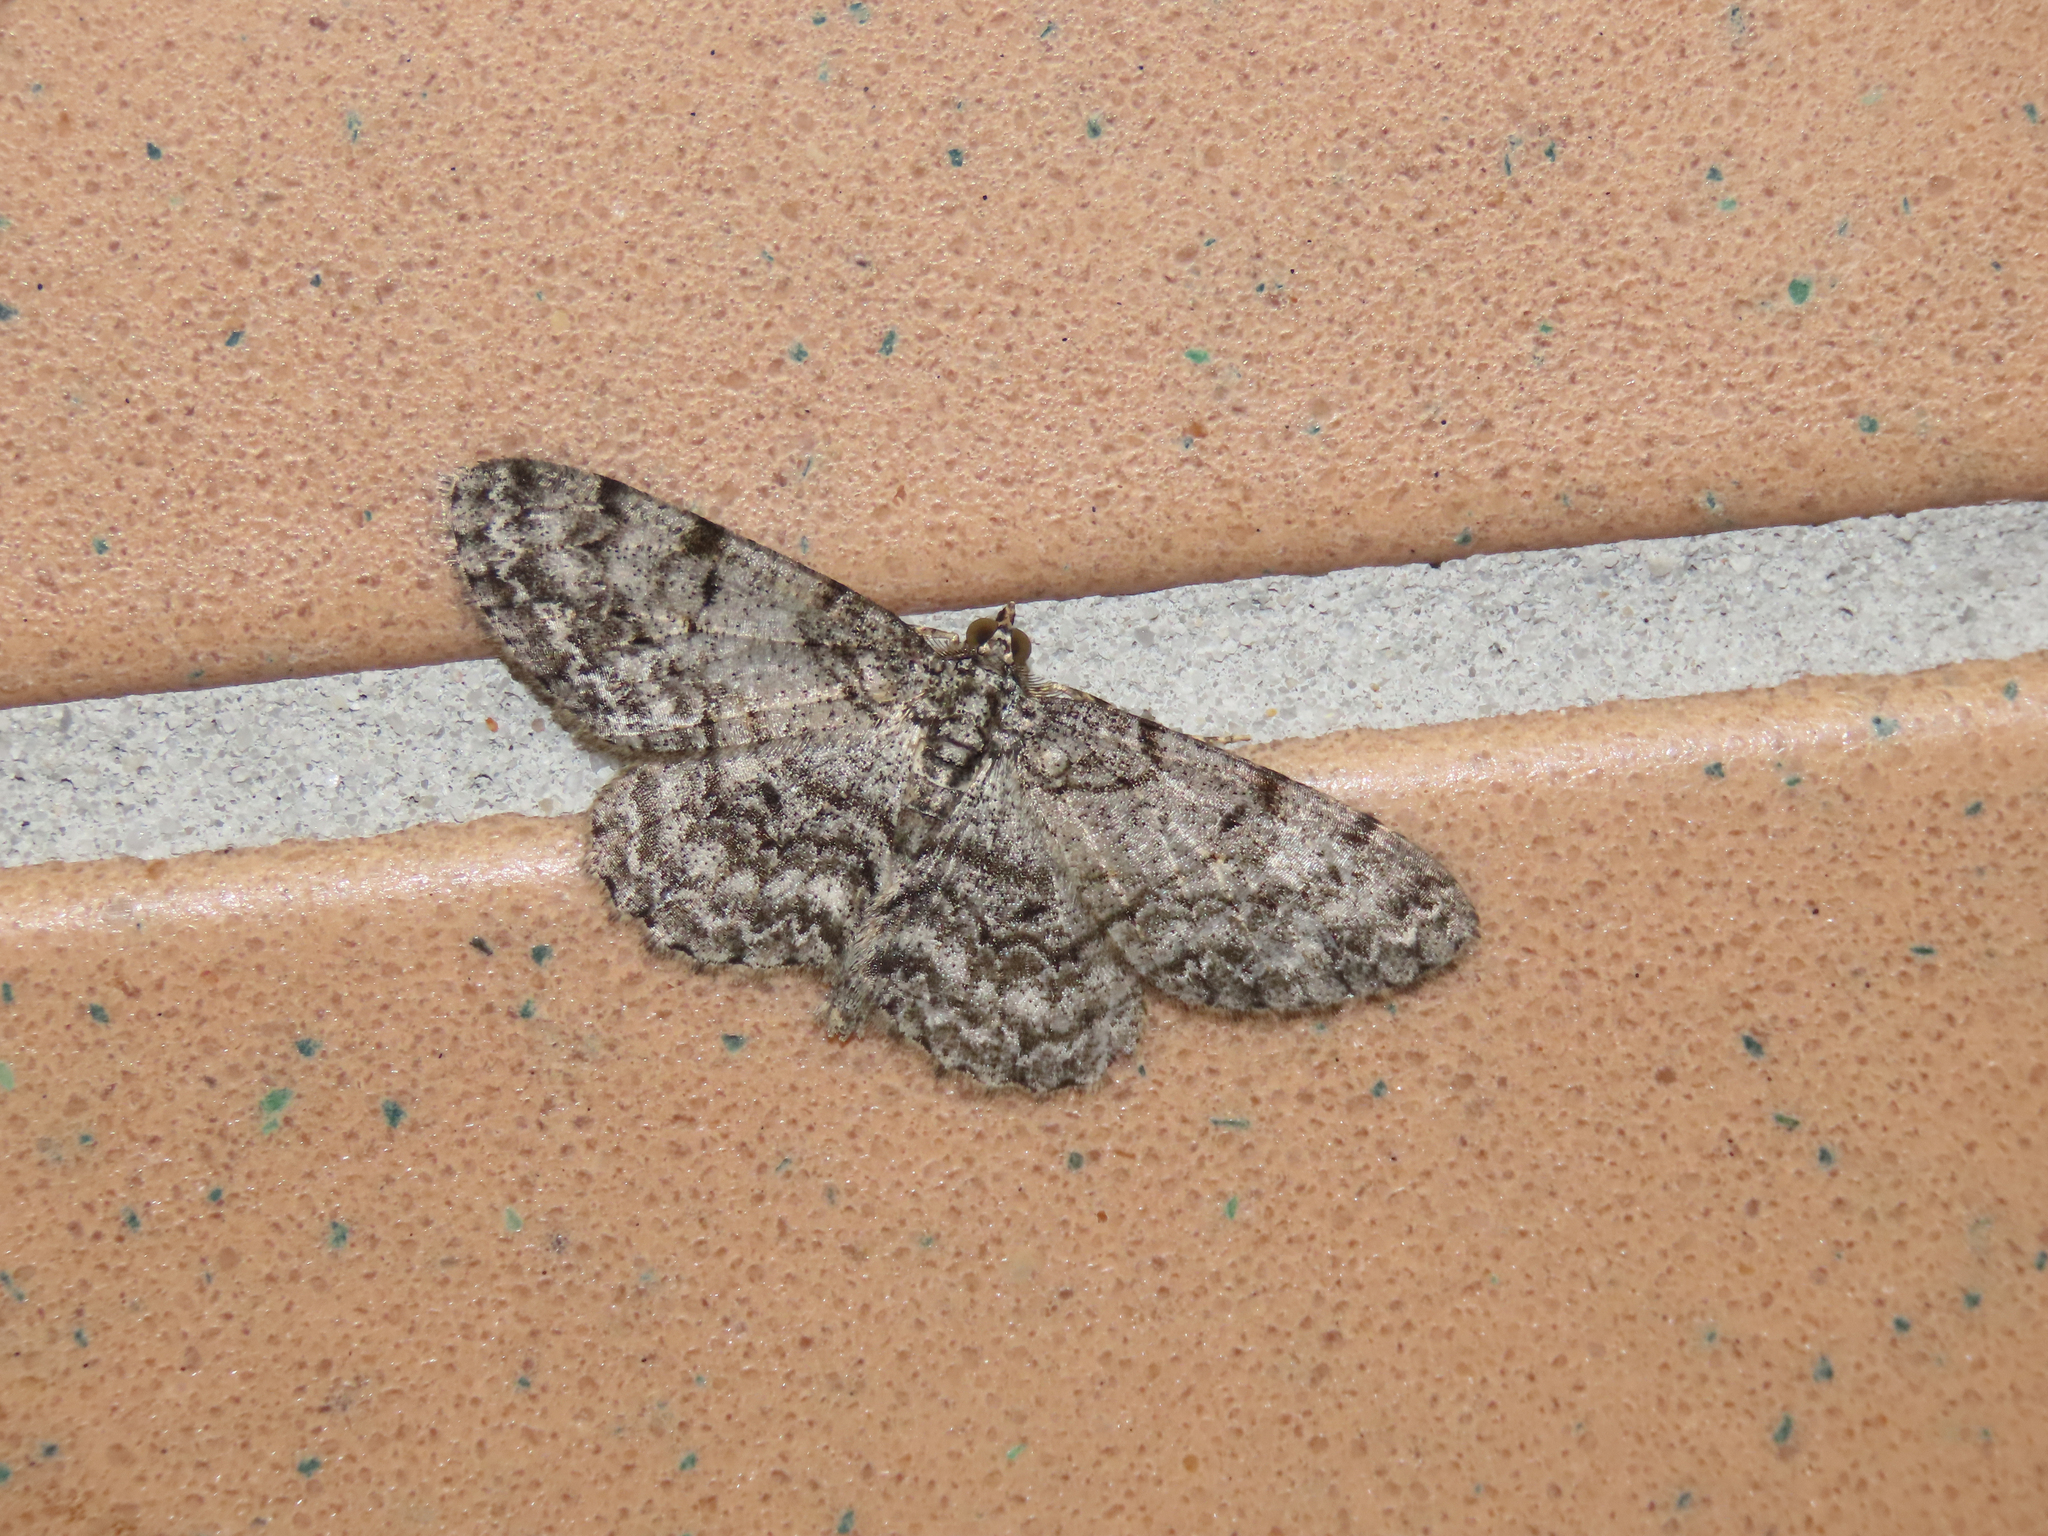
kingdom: Animalia
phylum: Arthropoda
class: Insecta
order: Lepidoptera
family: Geometridae
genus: Protoboarmia
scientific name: Protoboarmia porcelaria
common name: Porcelain gray
